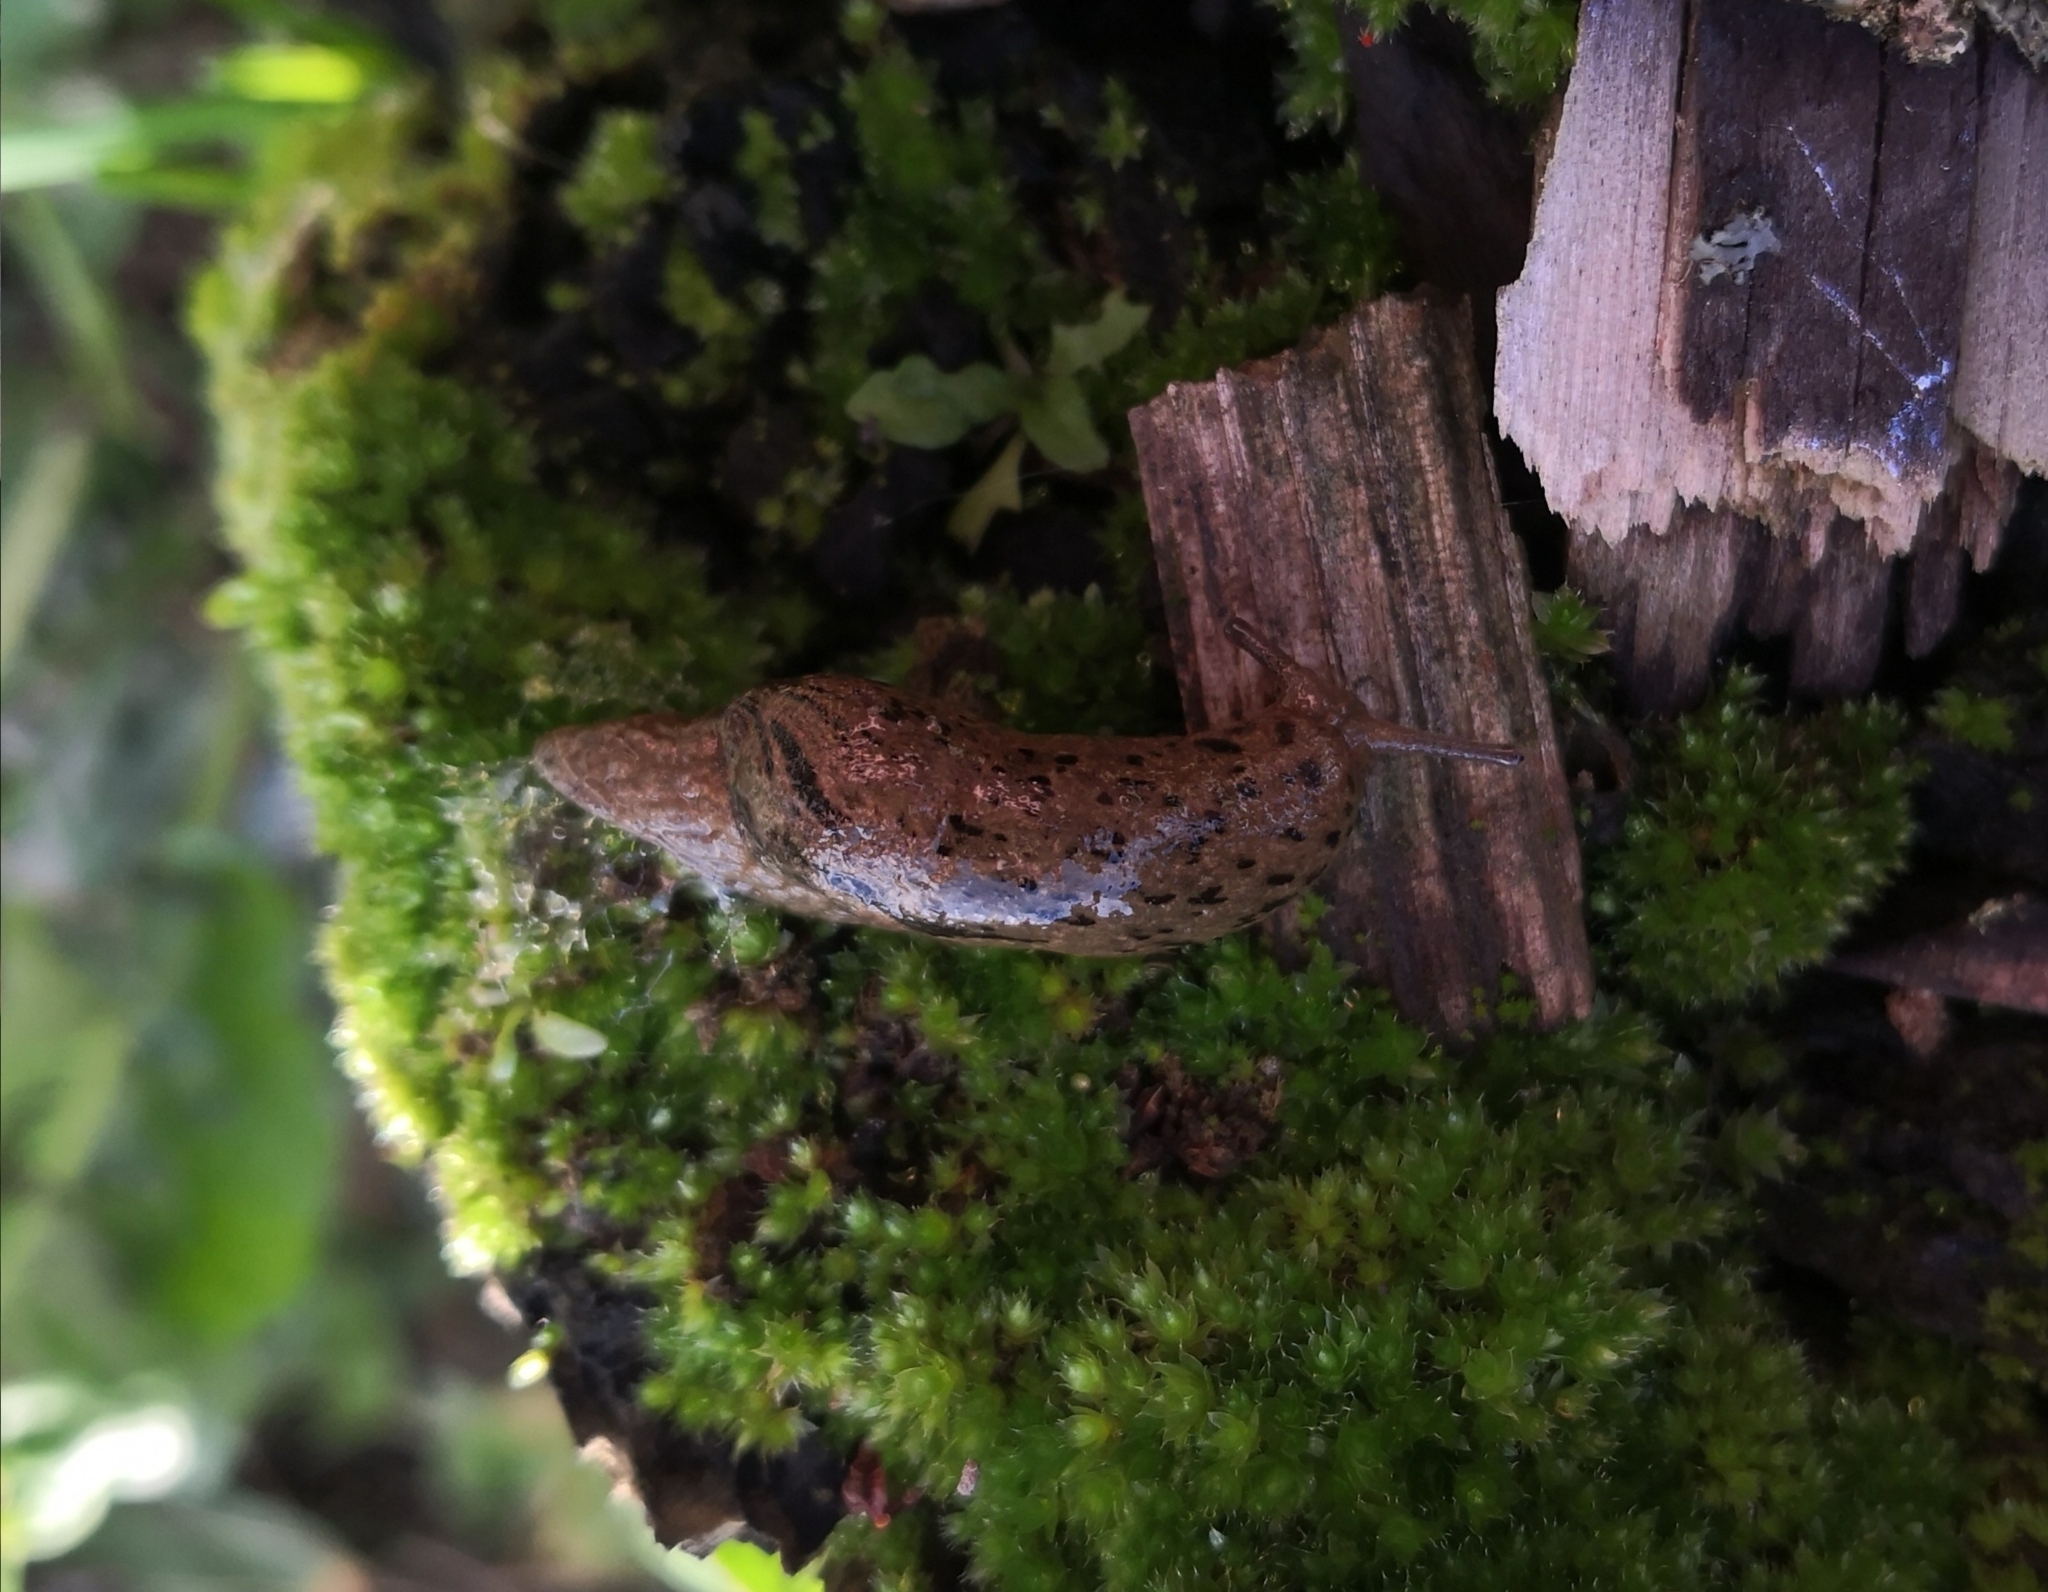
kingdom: Animalia
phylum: Mollusca
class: Gastropoda
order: Stylommatophora
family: Parmacellidae
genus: Drusia
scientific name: Drusia valenciennii
